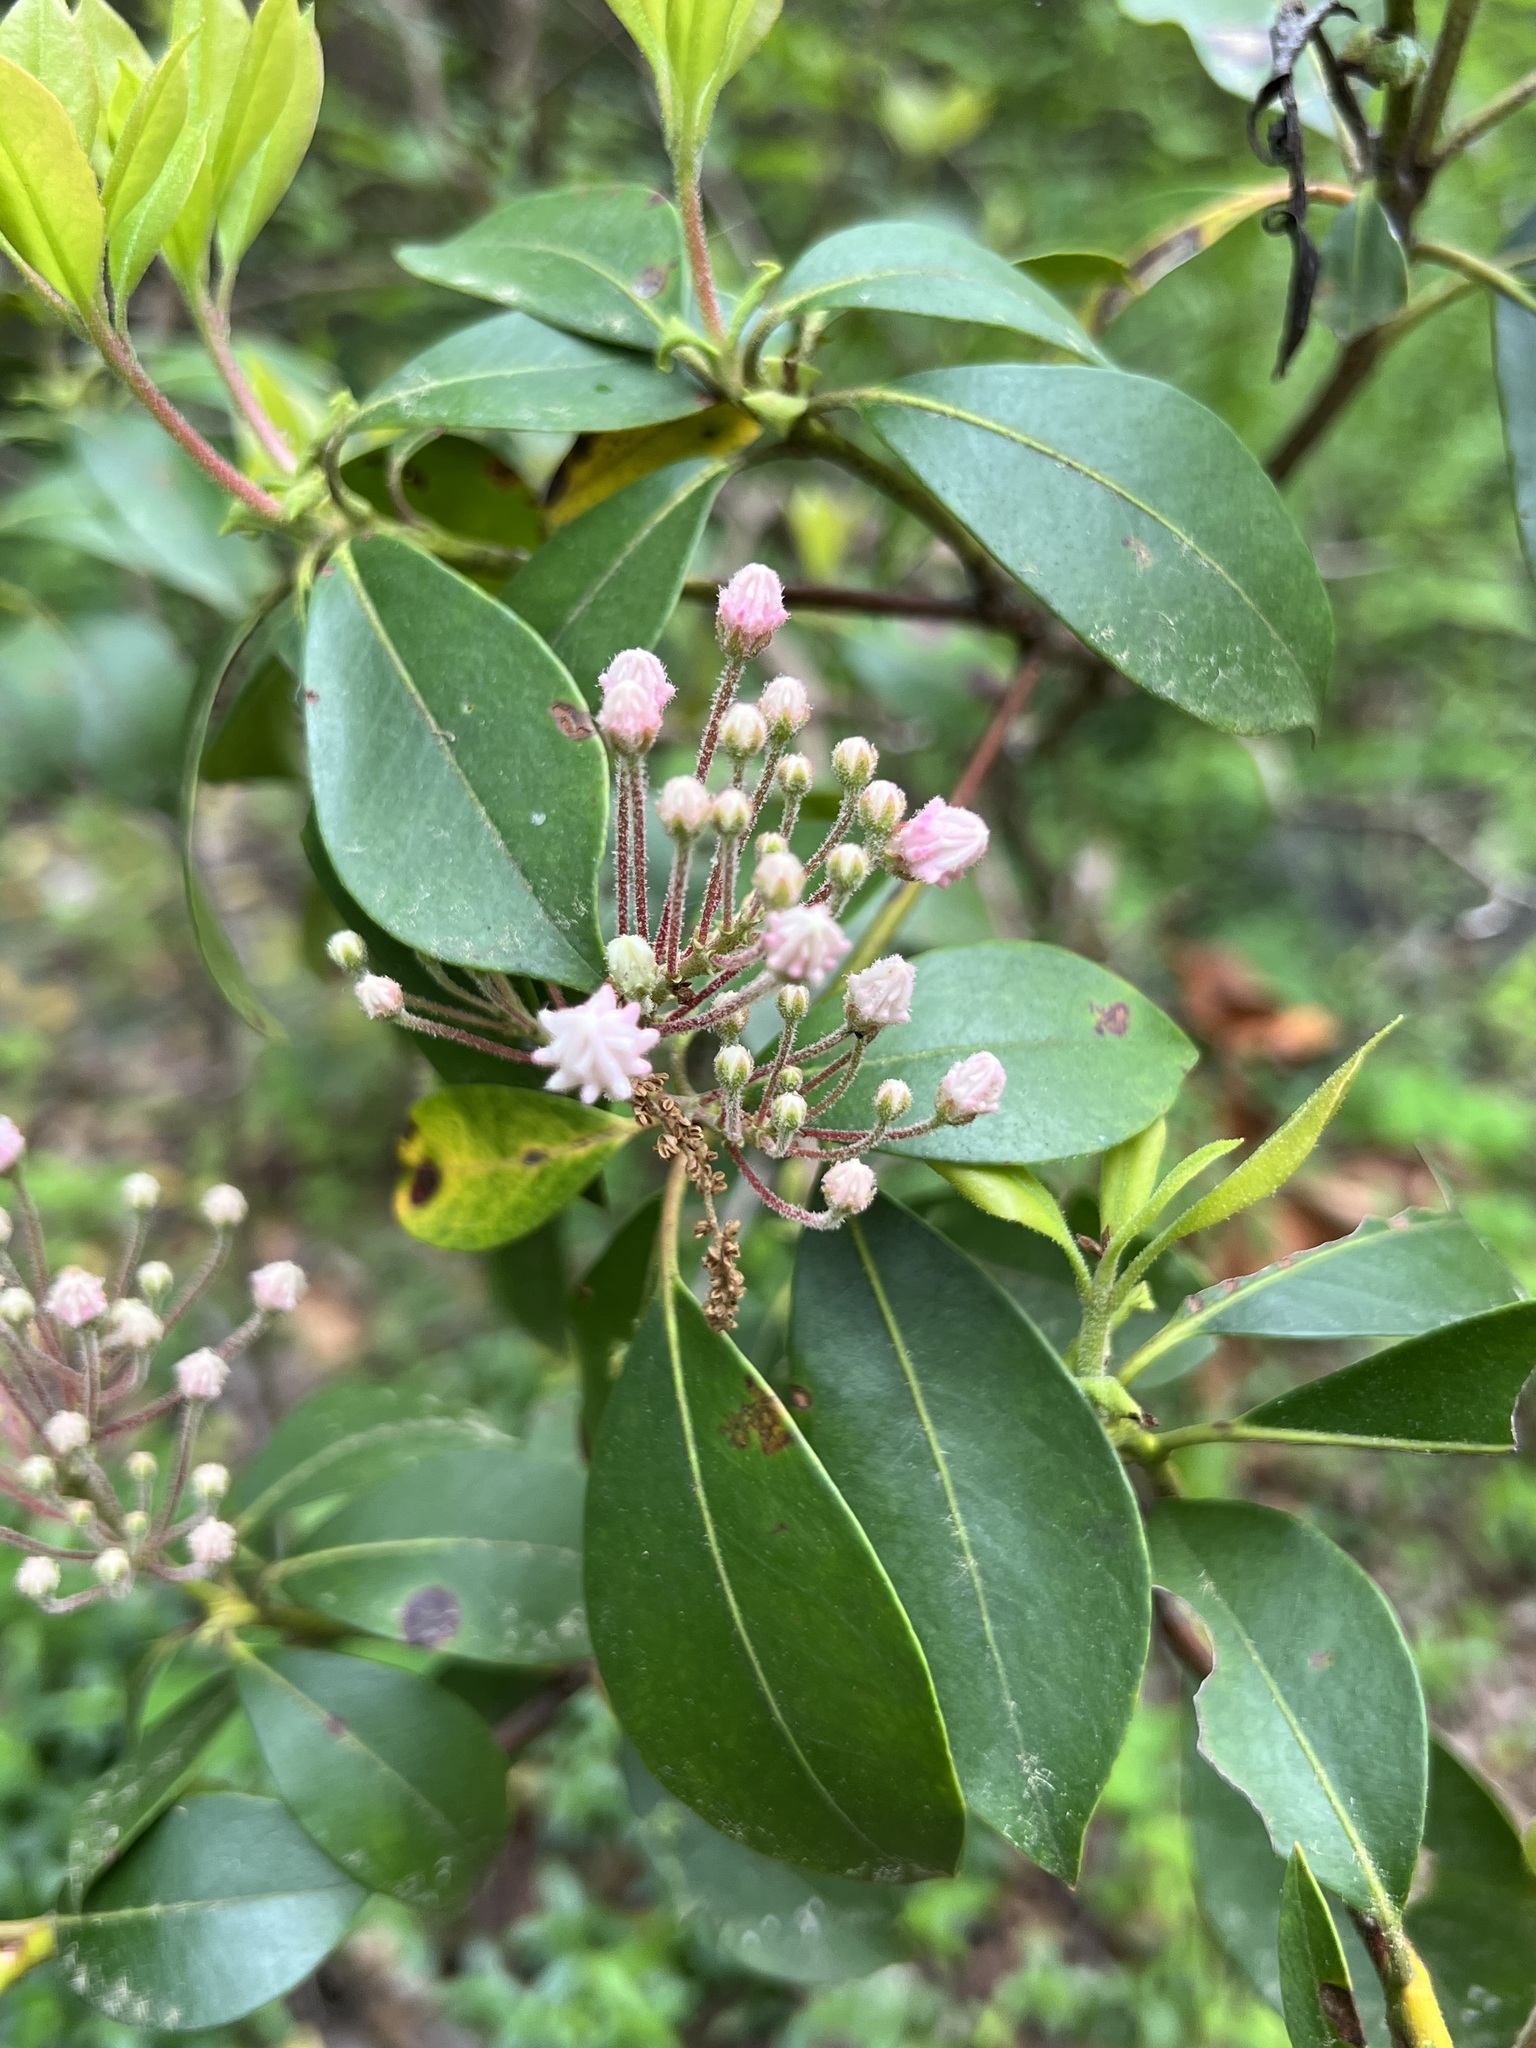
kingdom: Plantae
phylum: Tracheophyta
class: Magnoliopsida
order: Ericales
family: Ericaceae
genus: Kalmia
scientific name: Kalmia latifolia
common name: Mountain-laurel
